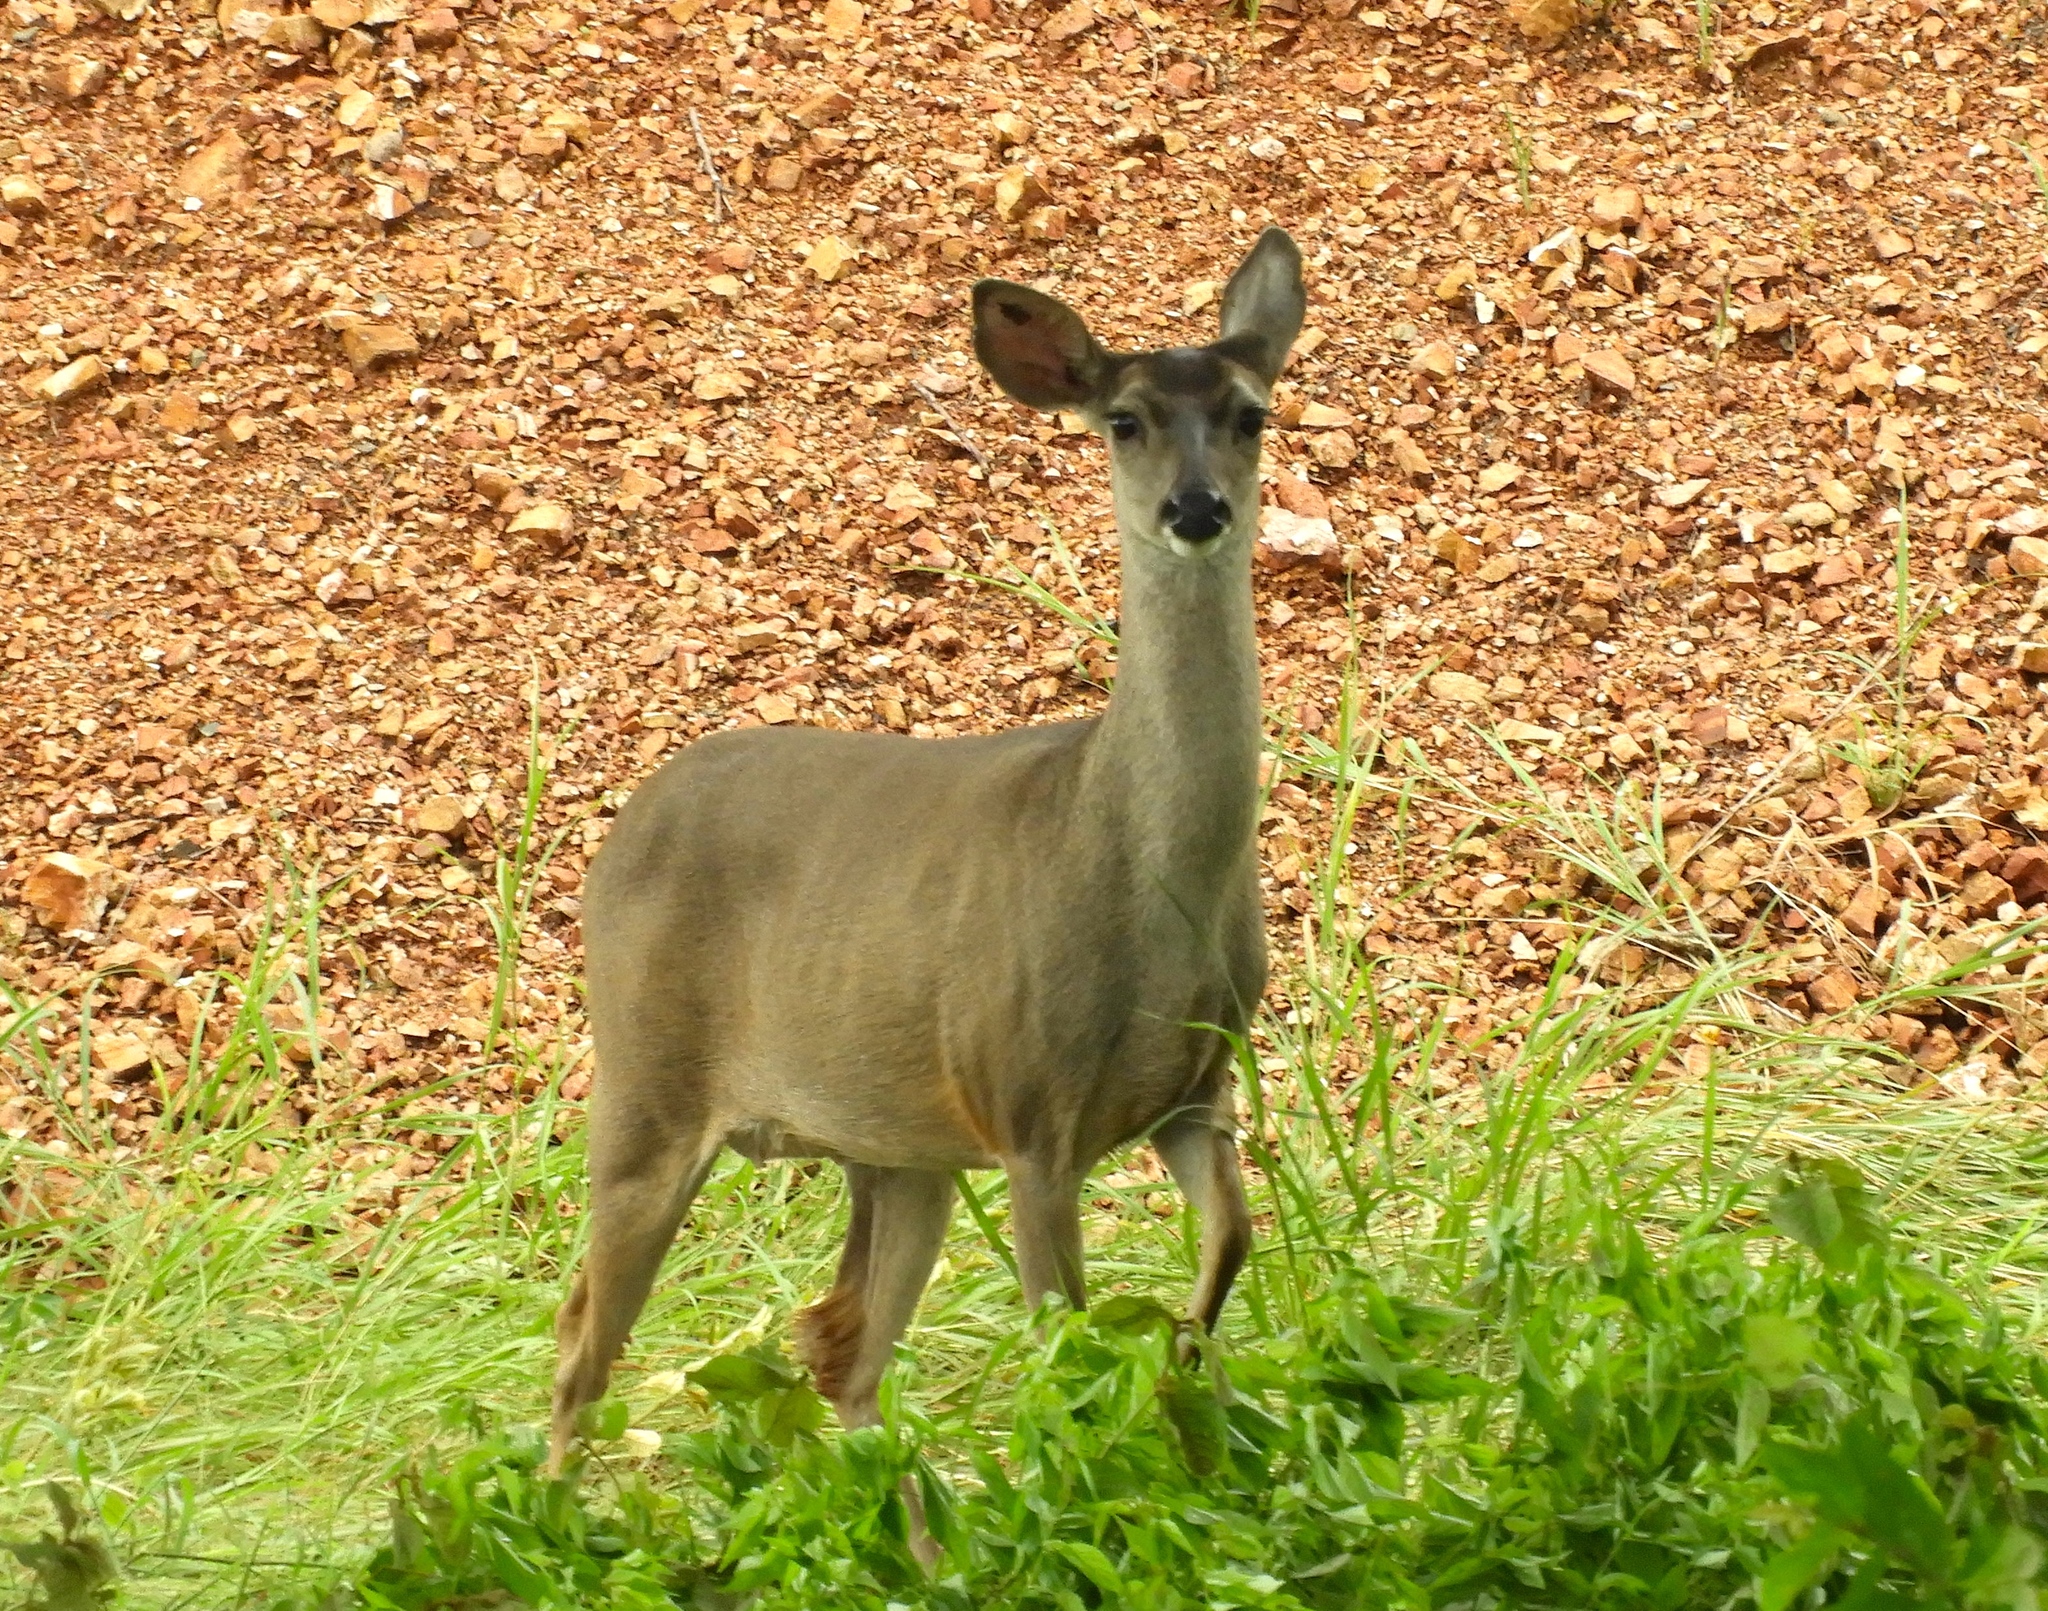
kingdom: Animalia
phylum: Chordata
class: Mammalia
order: Artiodactyla
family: Cervidae
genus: Odocoileus
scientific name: Odocoileus virginianus
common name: White-tailed deer
